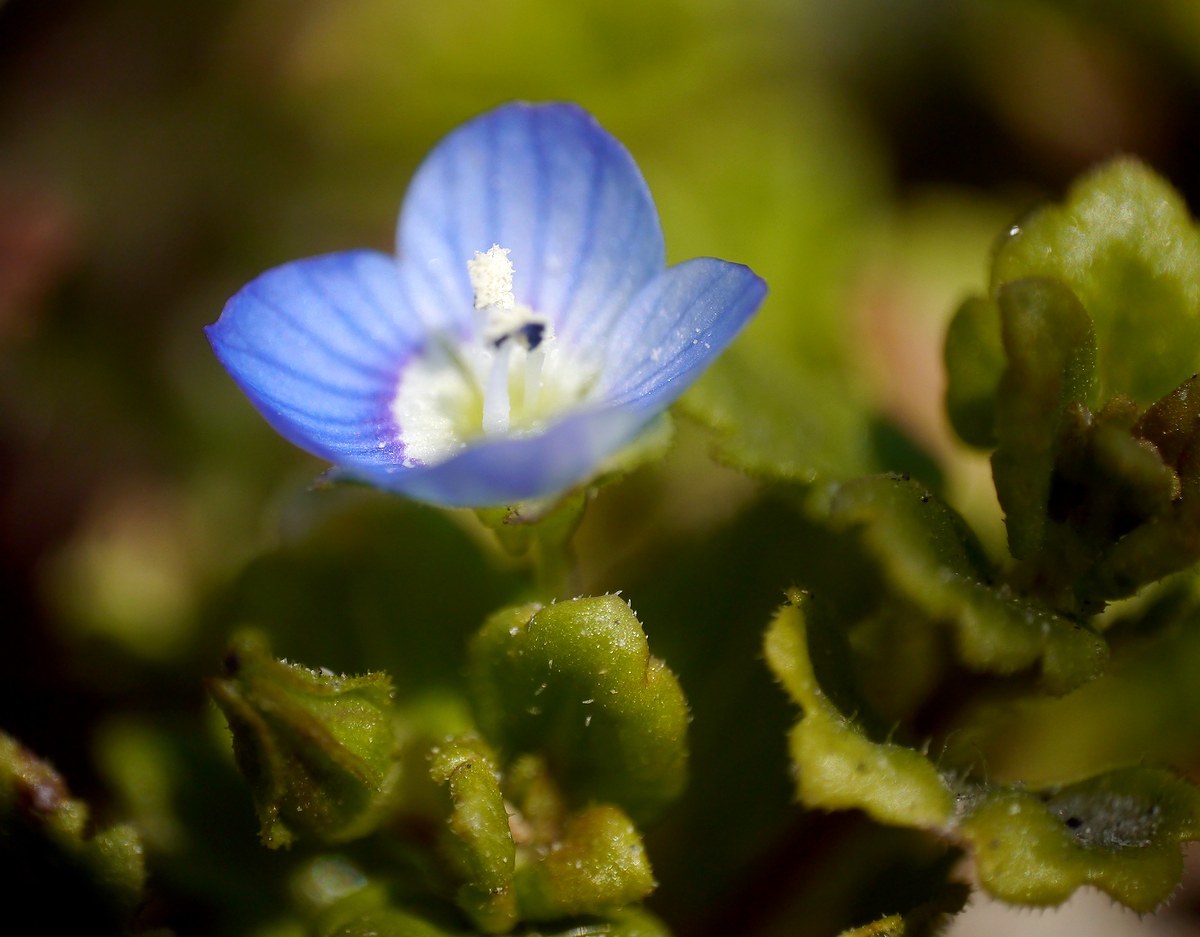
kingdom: Plantae
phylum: Tracheophyta
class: Magnoliopsida
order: Lamiales
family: Plantaginaceae
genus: Veronica
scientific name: Veronica polita
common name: Grey field-speedwell
